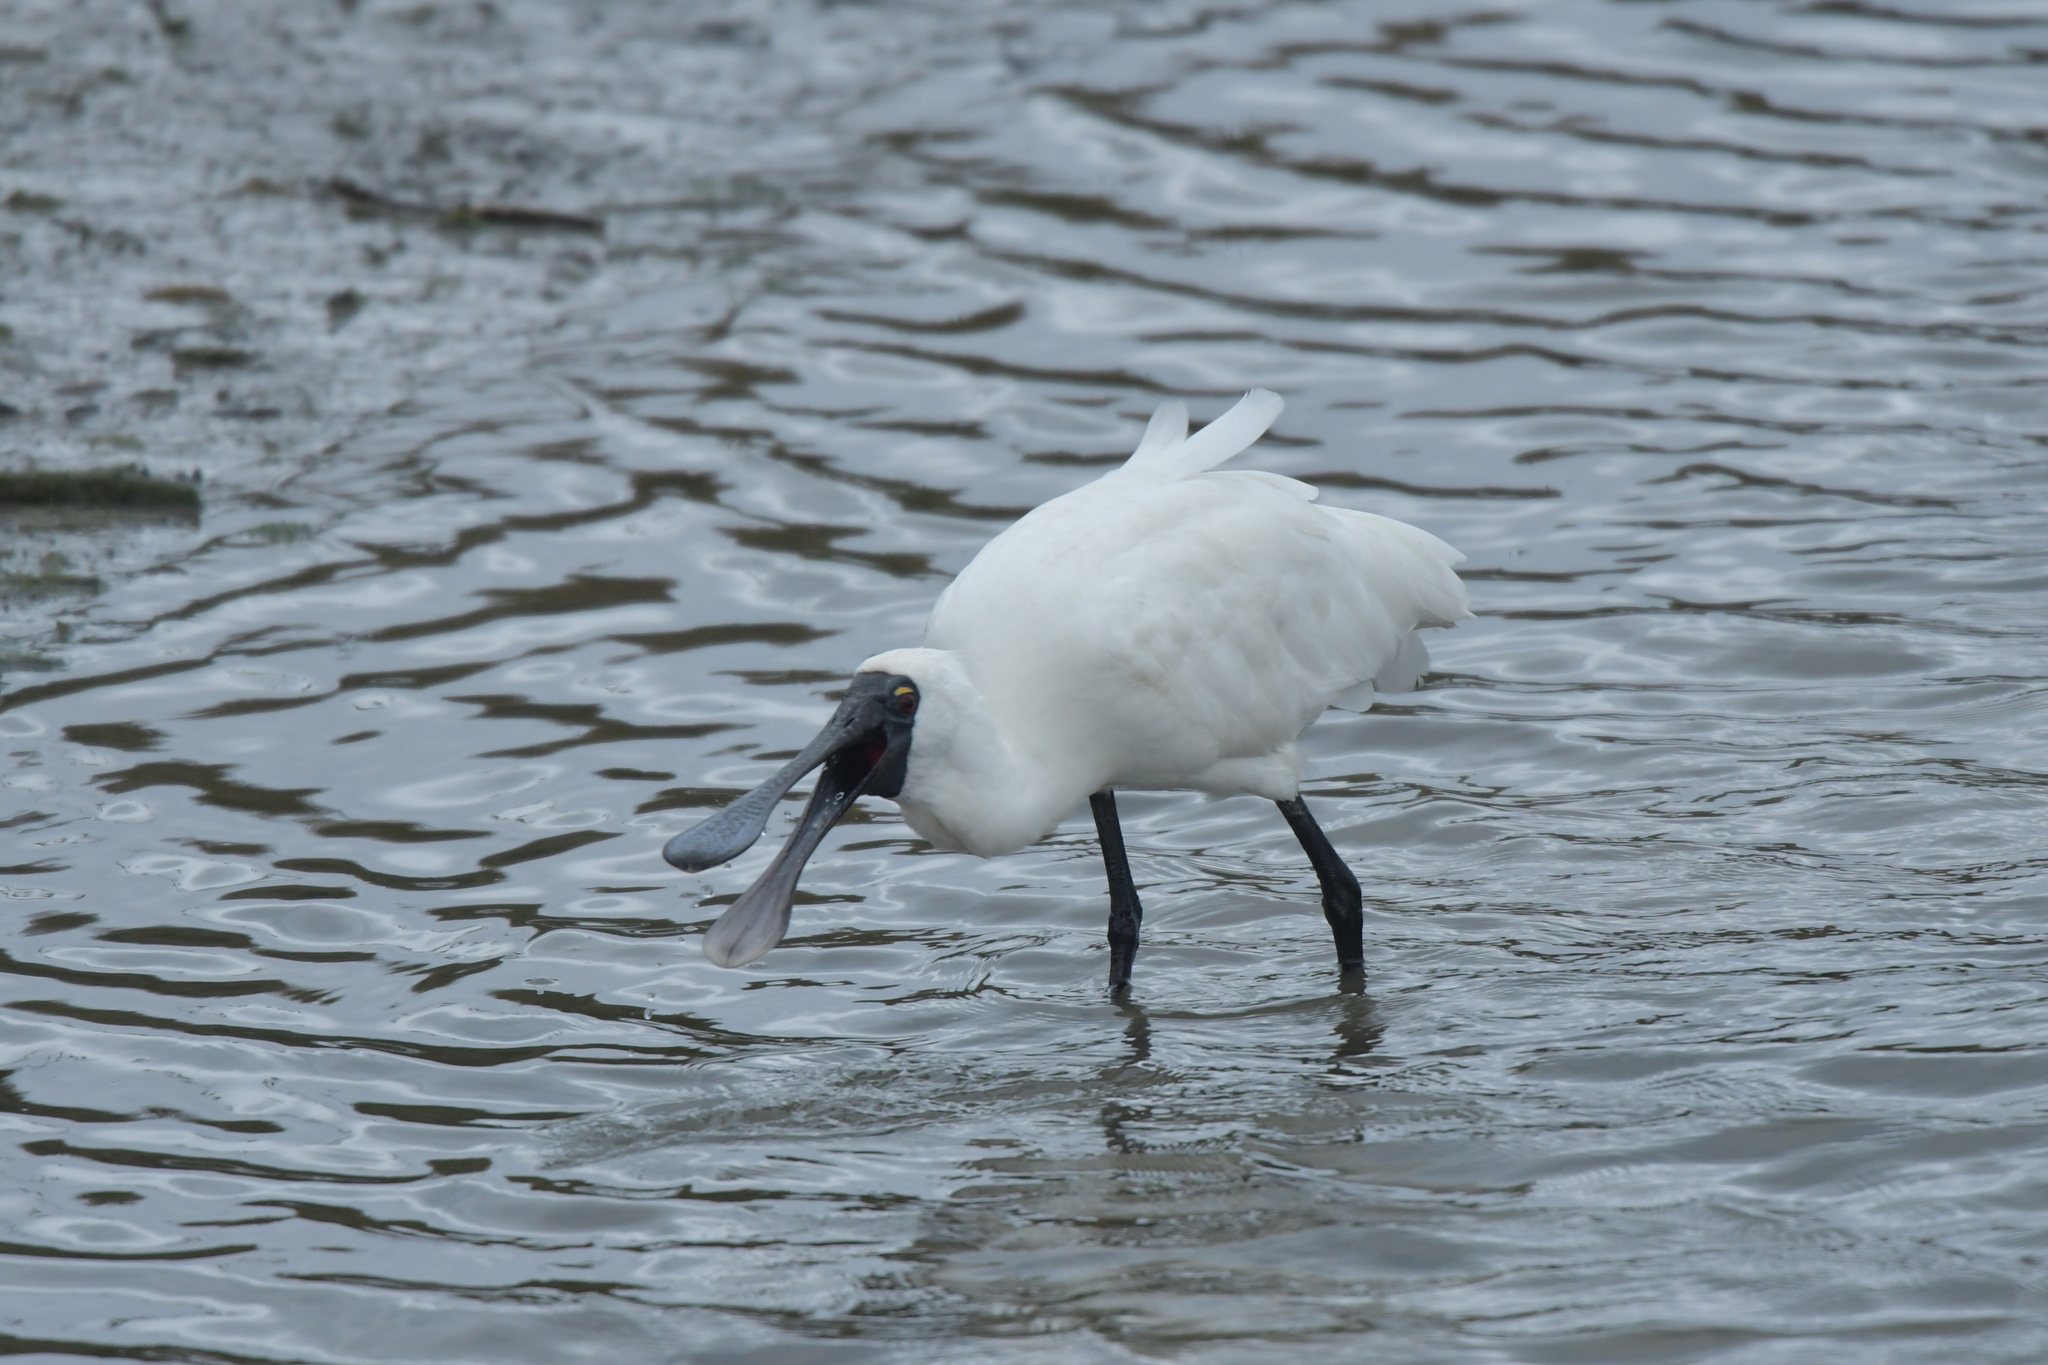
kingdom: Animalia
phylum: Chordata
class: Aves
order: Pelecaniformes
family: Threskiornithidae
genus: Platalea
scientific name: Platalea regia
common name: Royal spoonbill
